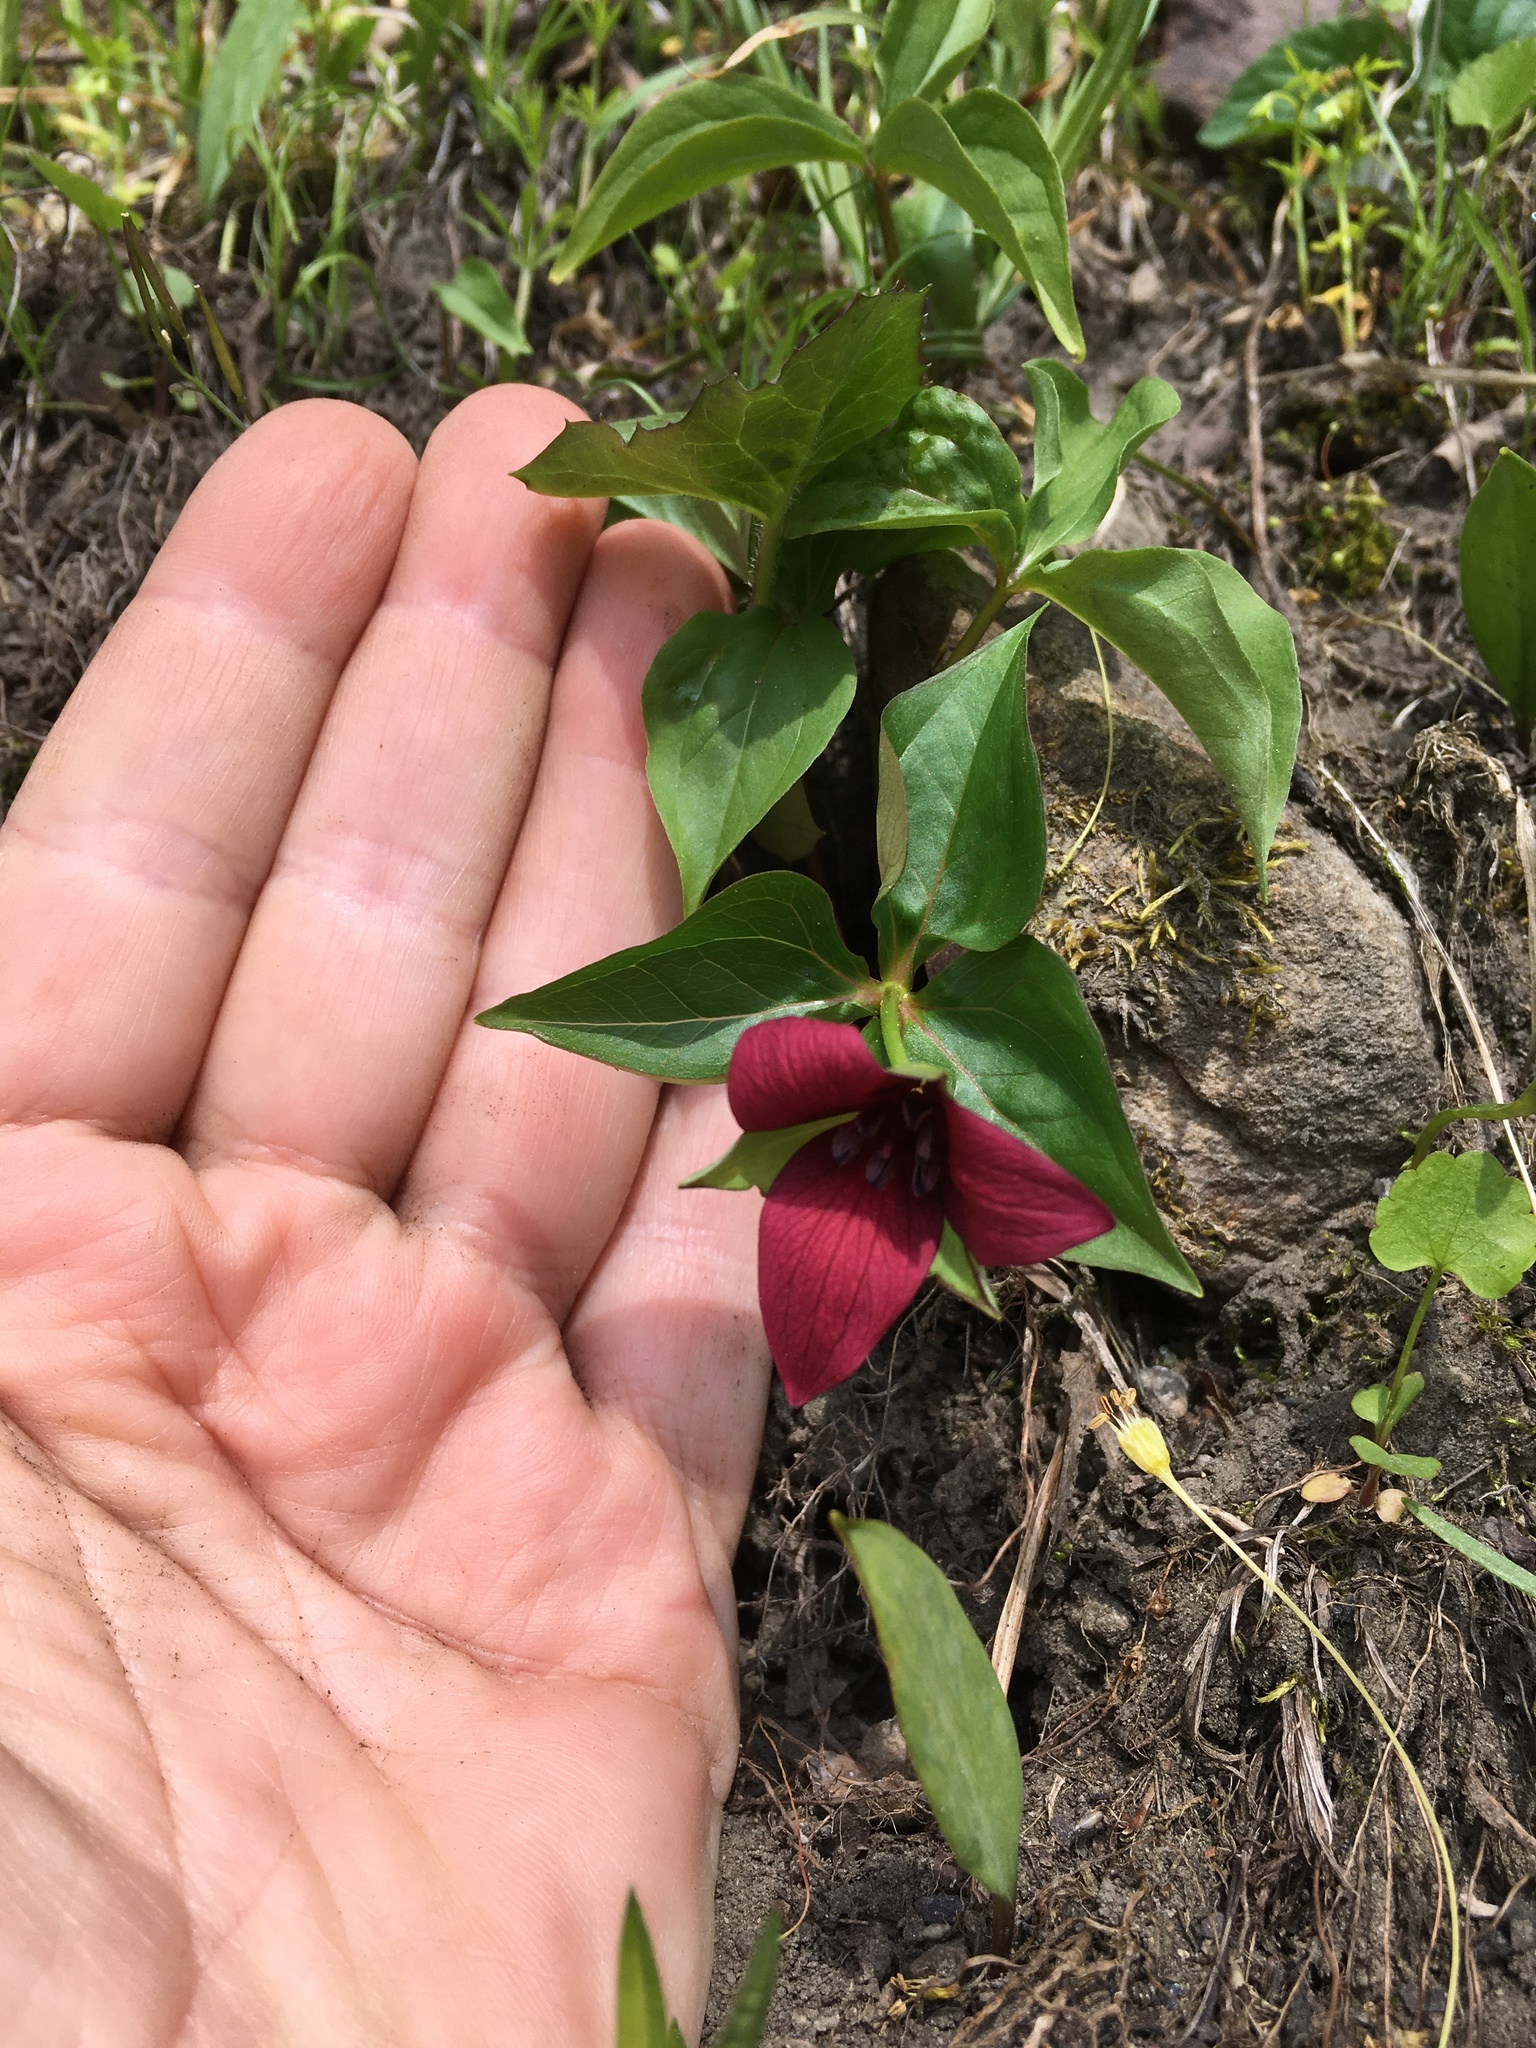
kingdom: Plantae
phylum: Tracheophyta
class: Liliopsida
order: Liliales
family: Melanthiaceae
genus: Trillium
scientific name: Trillium erectum
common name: Purple trillium
